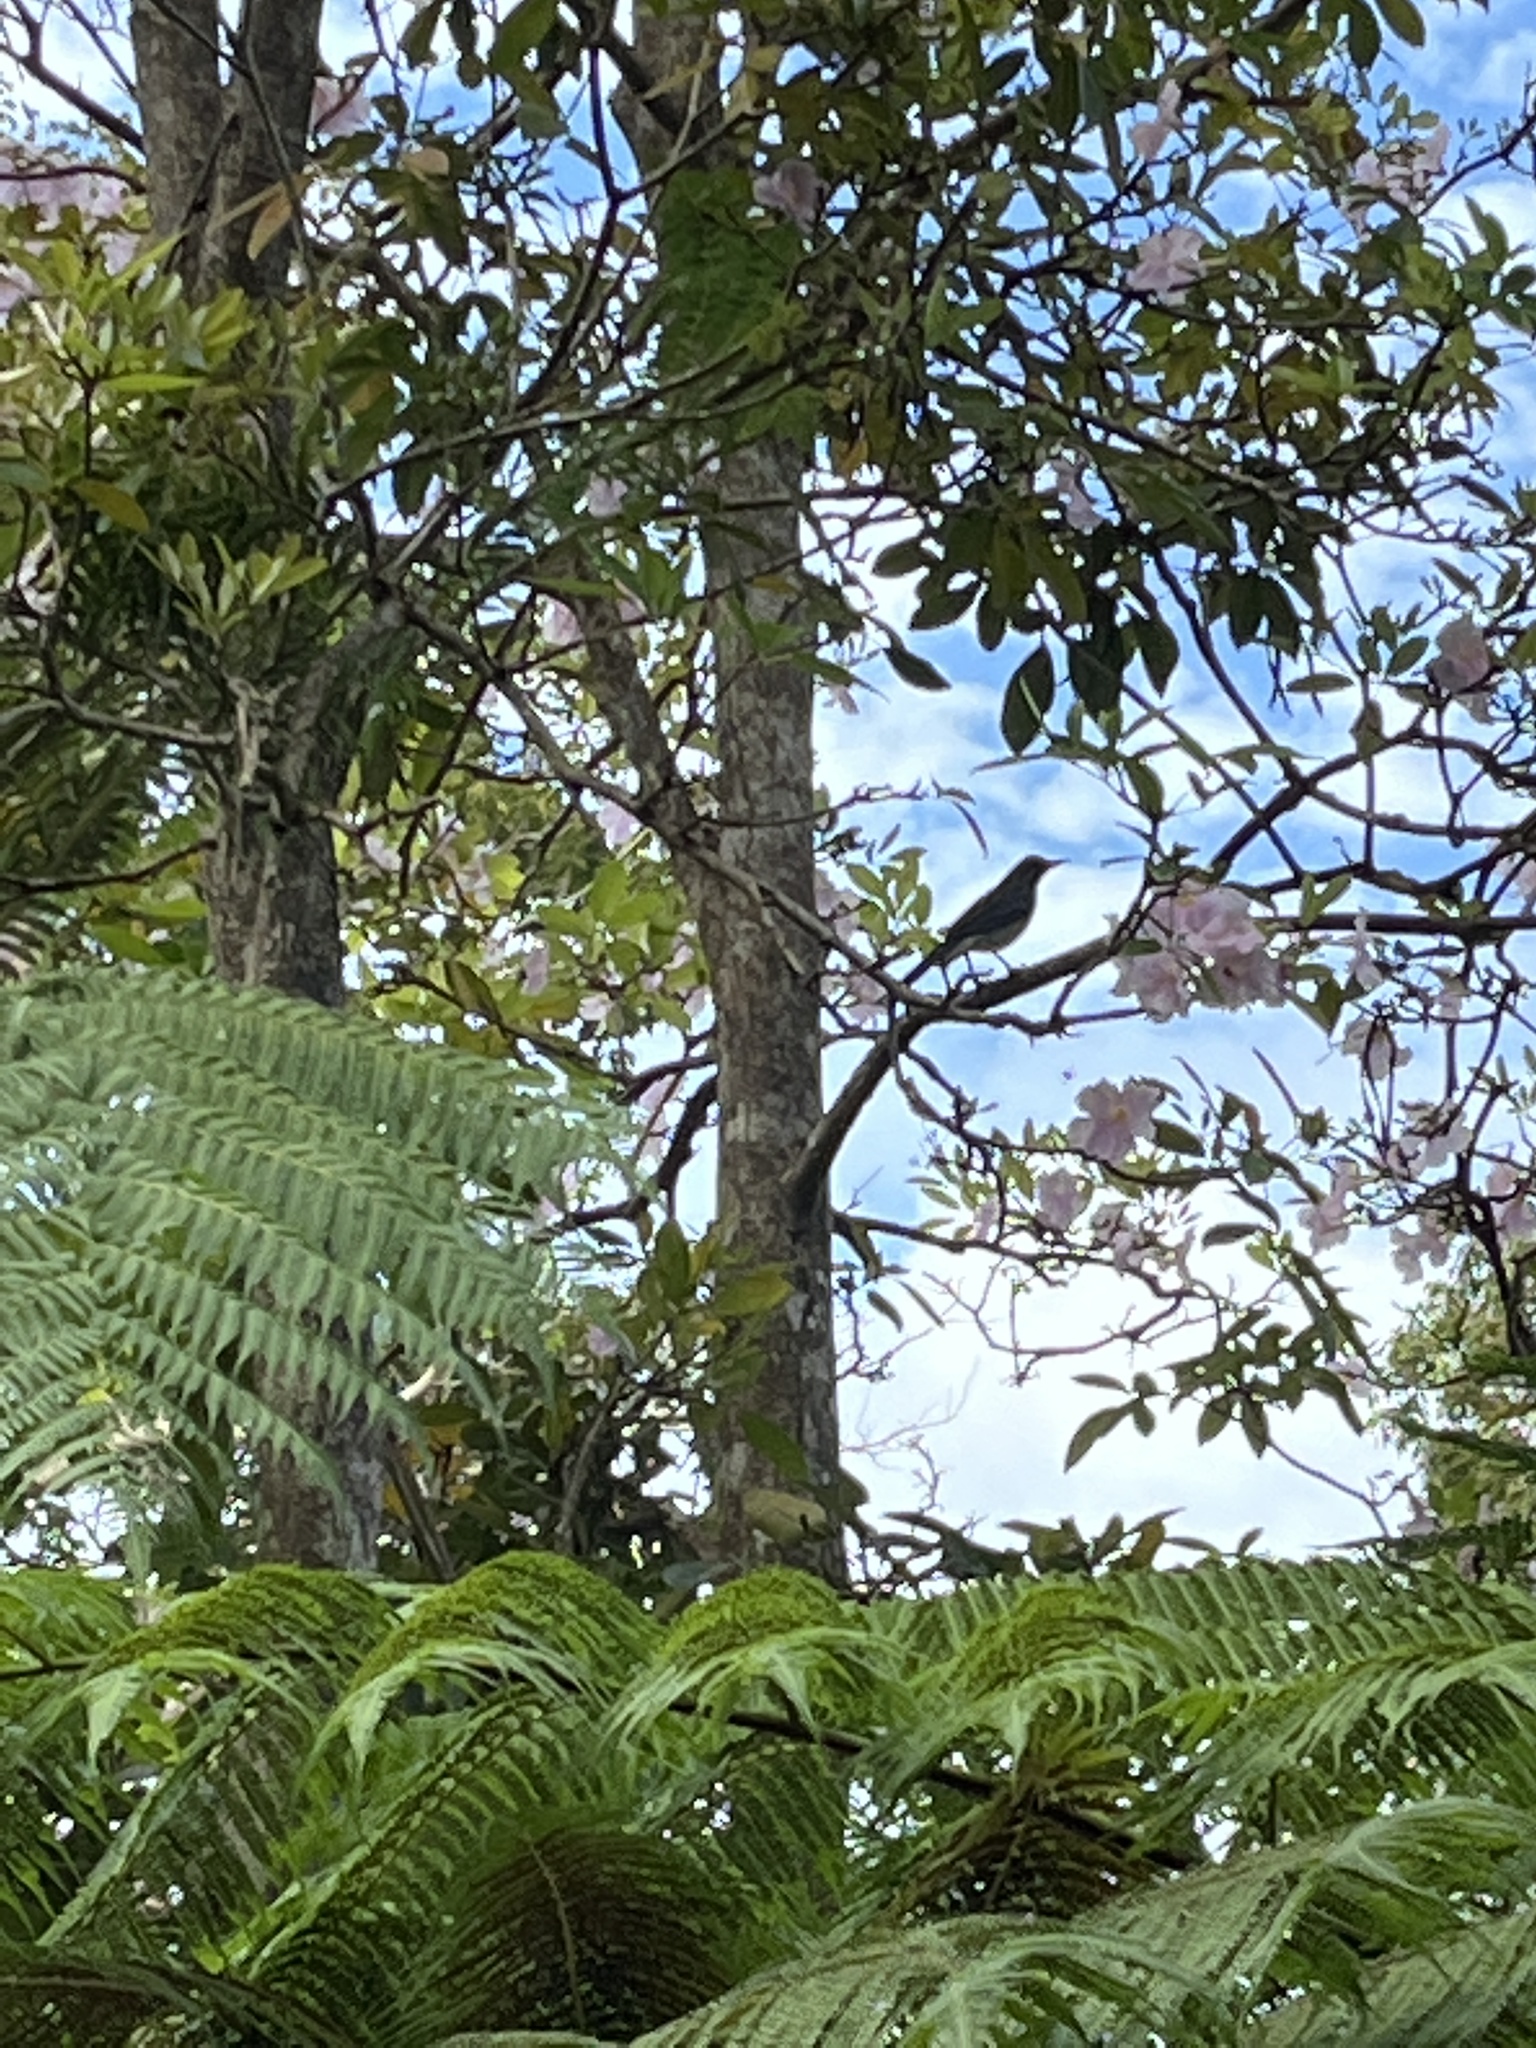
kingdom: Animalia
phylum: Chordata
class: Aves
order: Passeriformes
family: Mimidae
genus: Margarops
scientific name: Margarops fuscatus
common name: Pearly-eyed thrasher
